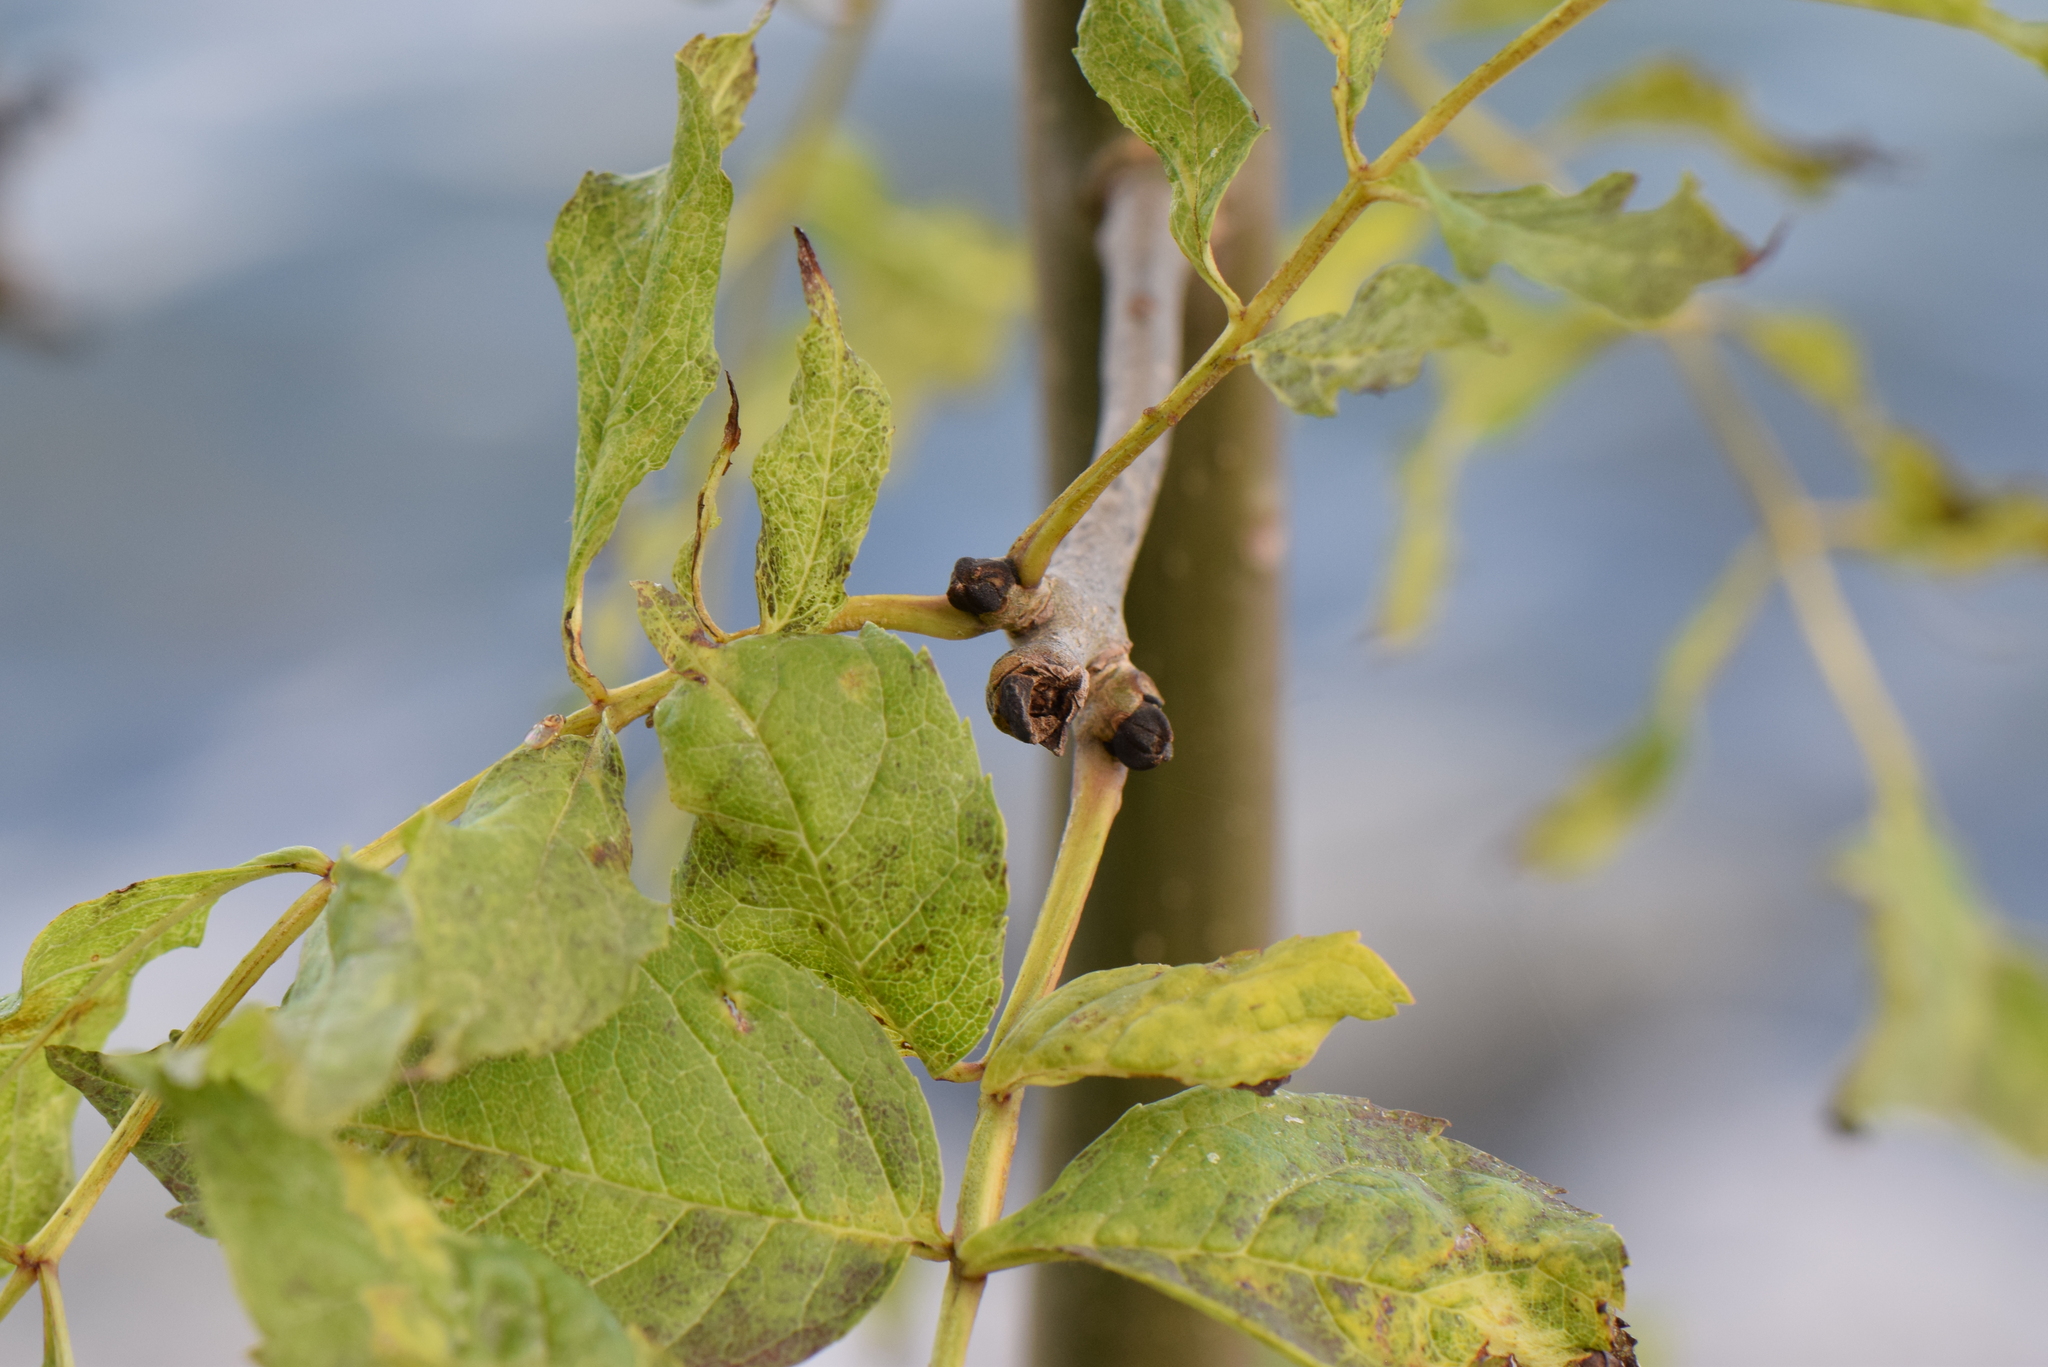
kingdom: Plantae
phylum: Tracheophyta
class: Magnoliopsida
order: Lamiales
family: Oleaceae
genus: Fraxinus
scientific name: Fraxinus excelsior
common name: European ash
